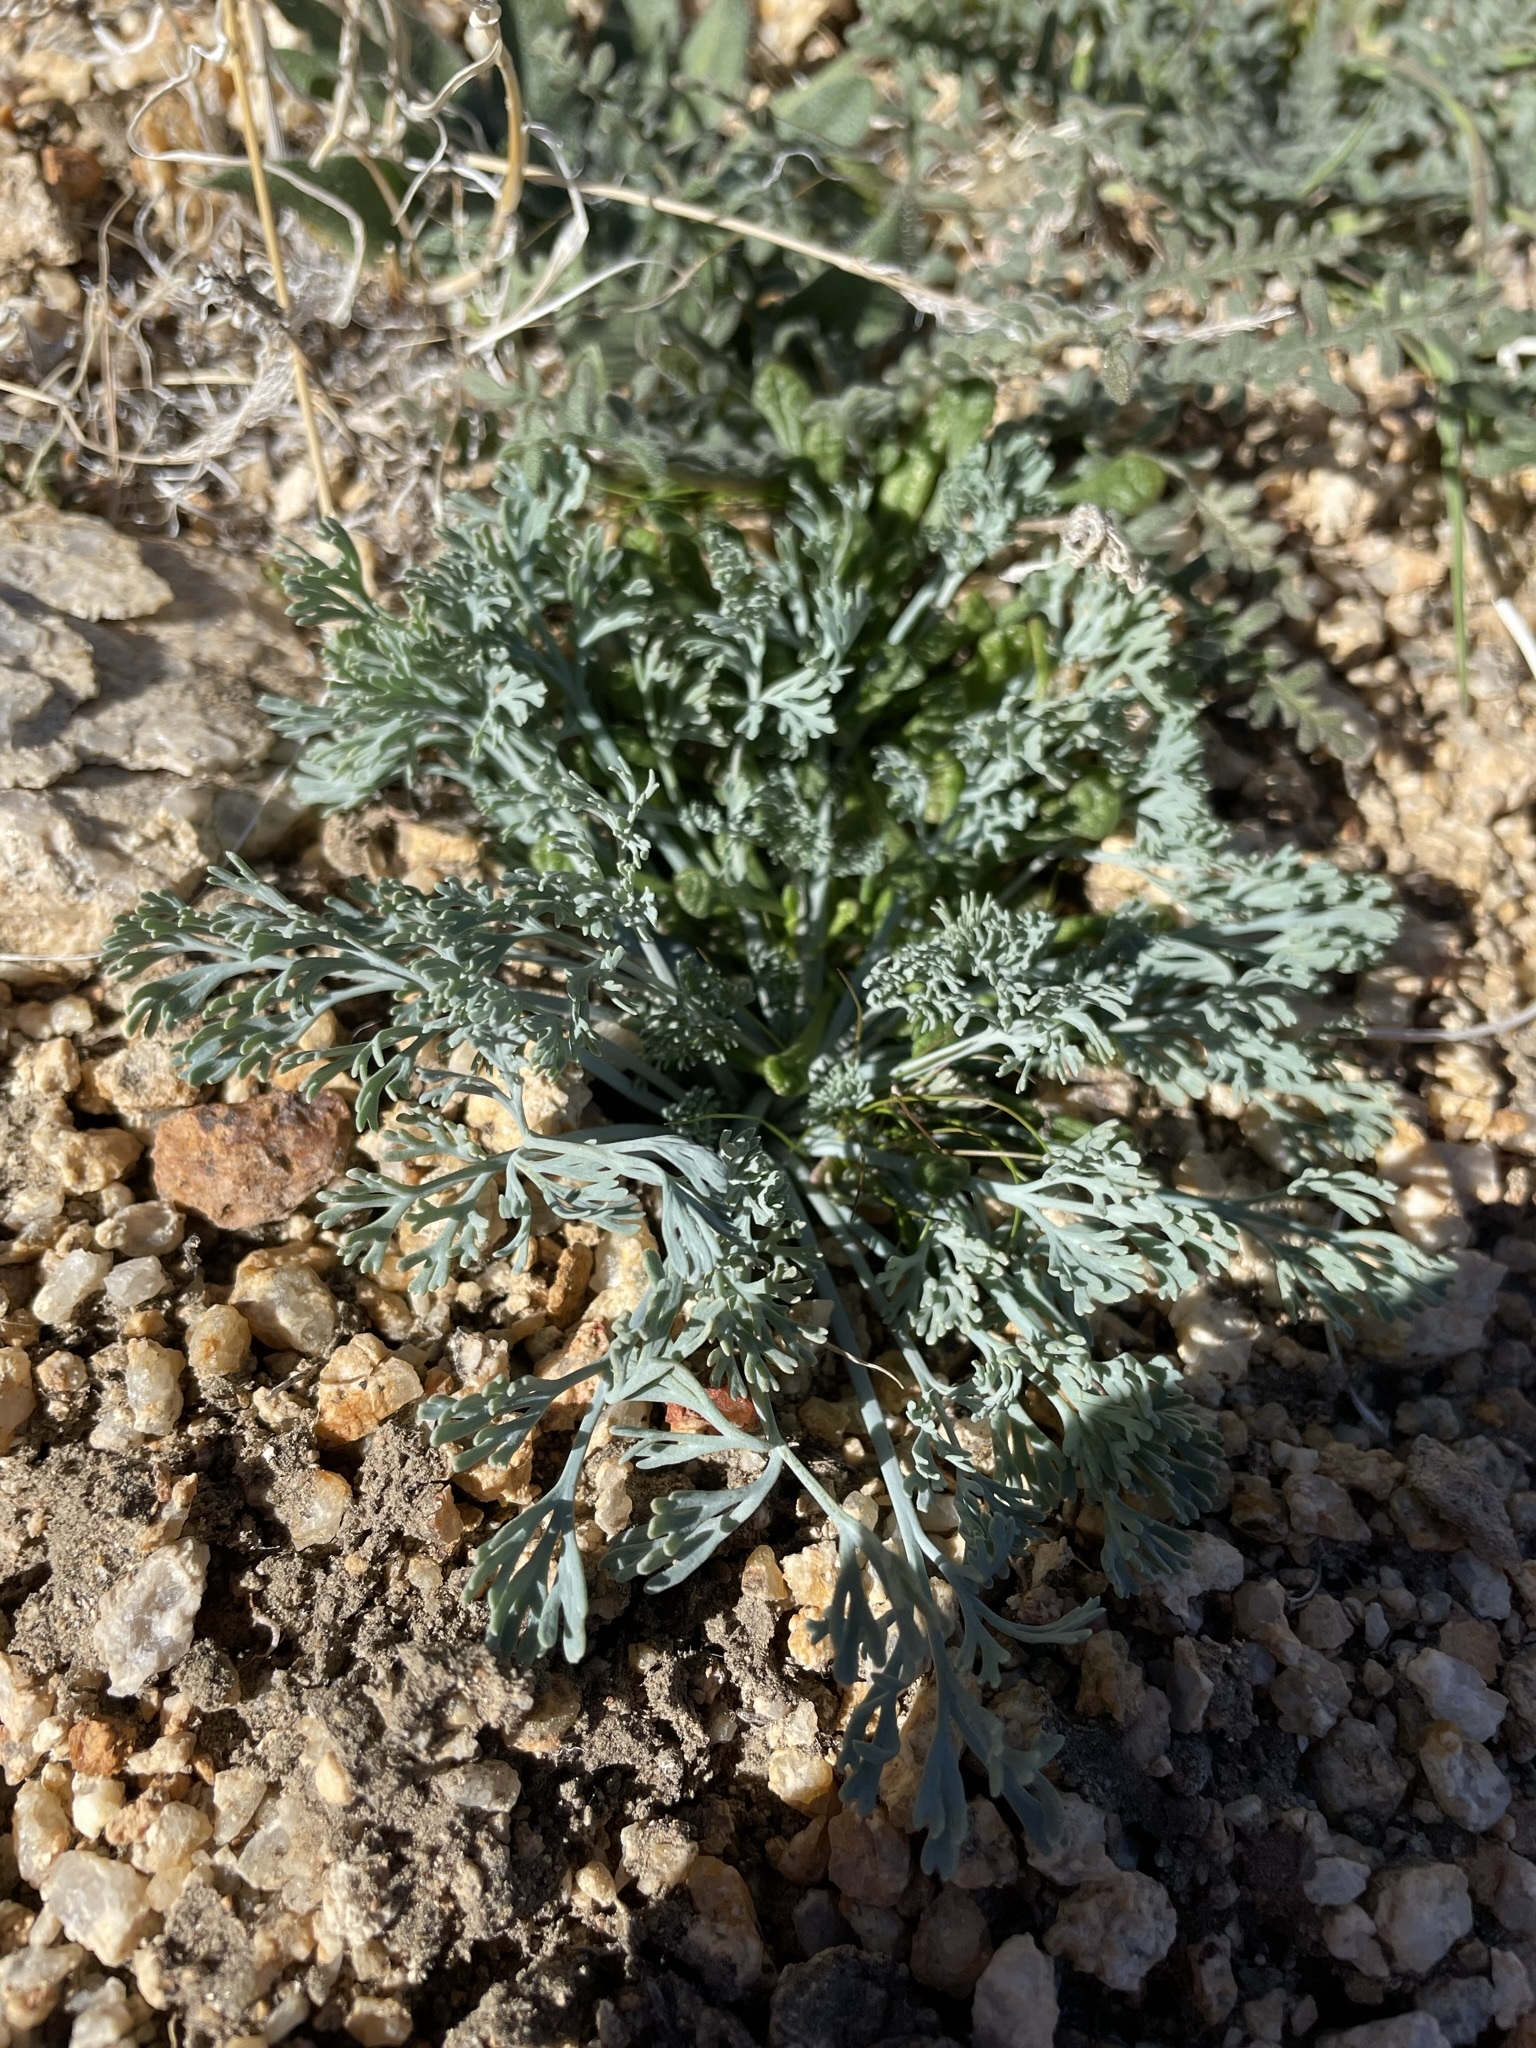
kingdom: Plantae
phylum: Tracheophyta
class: Magnoliopsida
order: Ranunculales
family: Papaveraceae
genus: Eschscholzia
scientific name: Eschscholzia minutiflora
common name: Small-flower california-poppy
